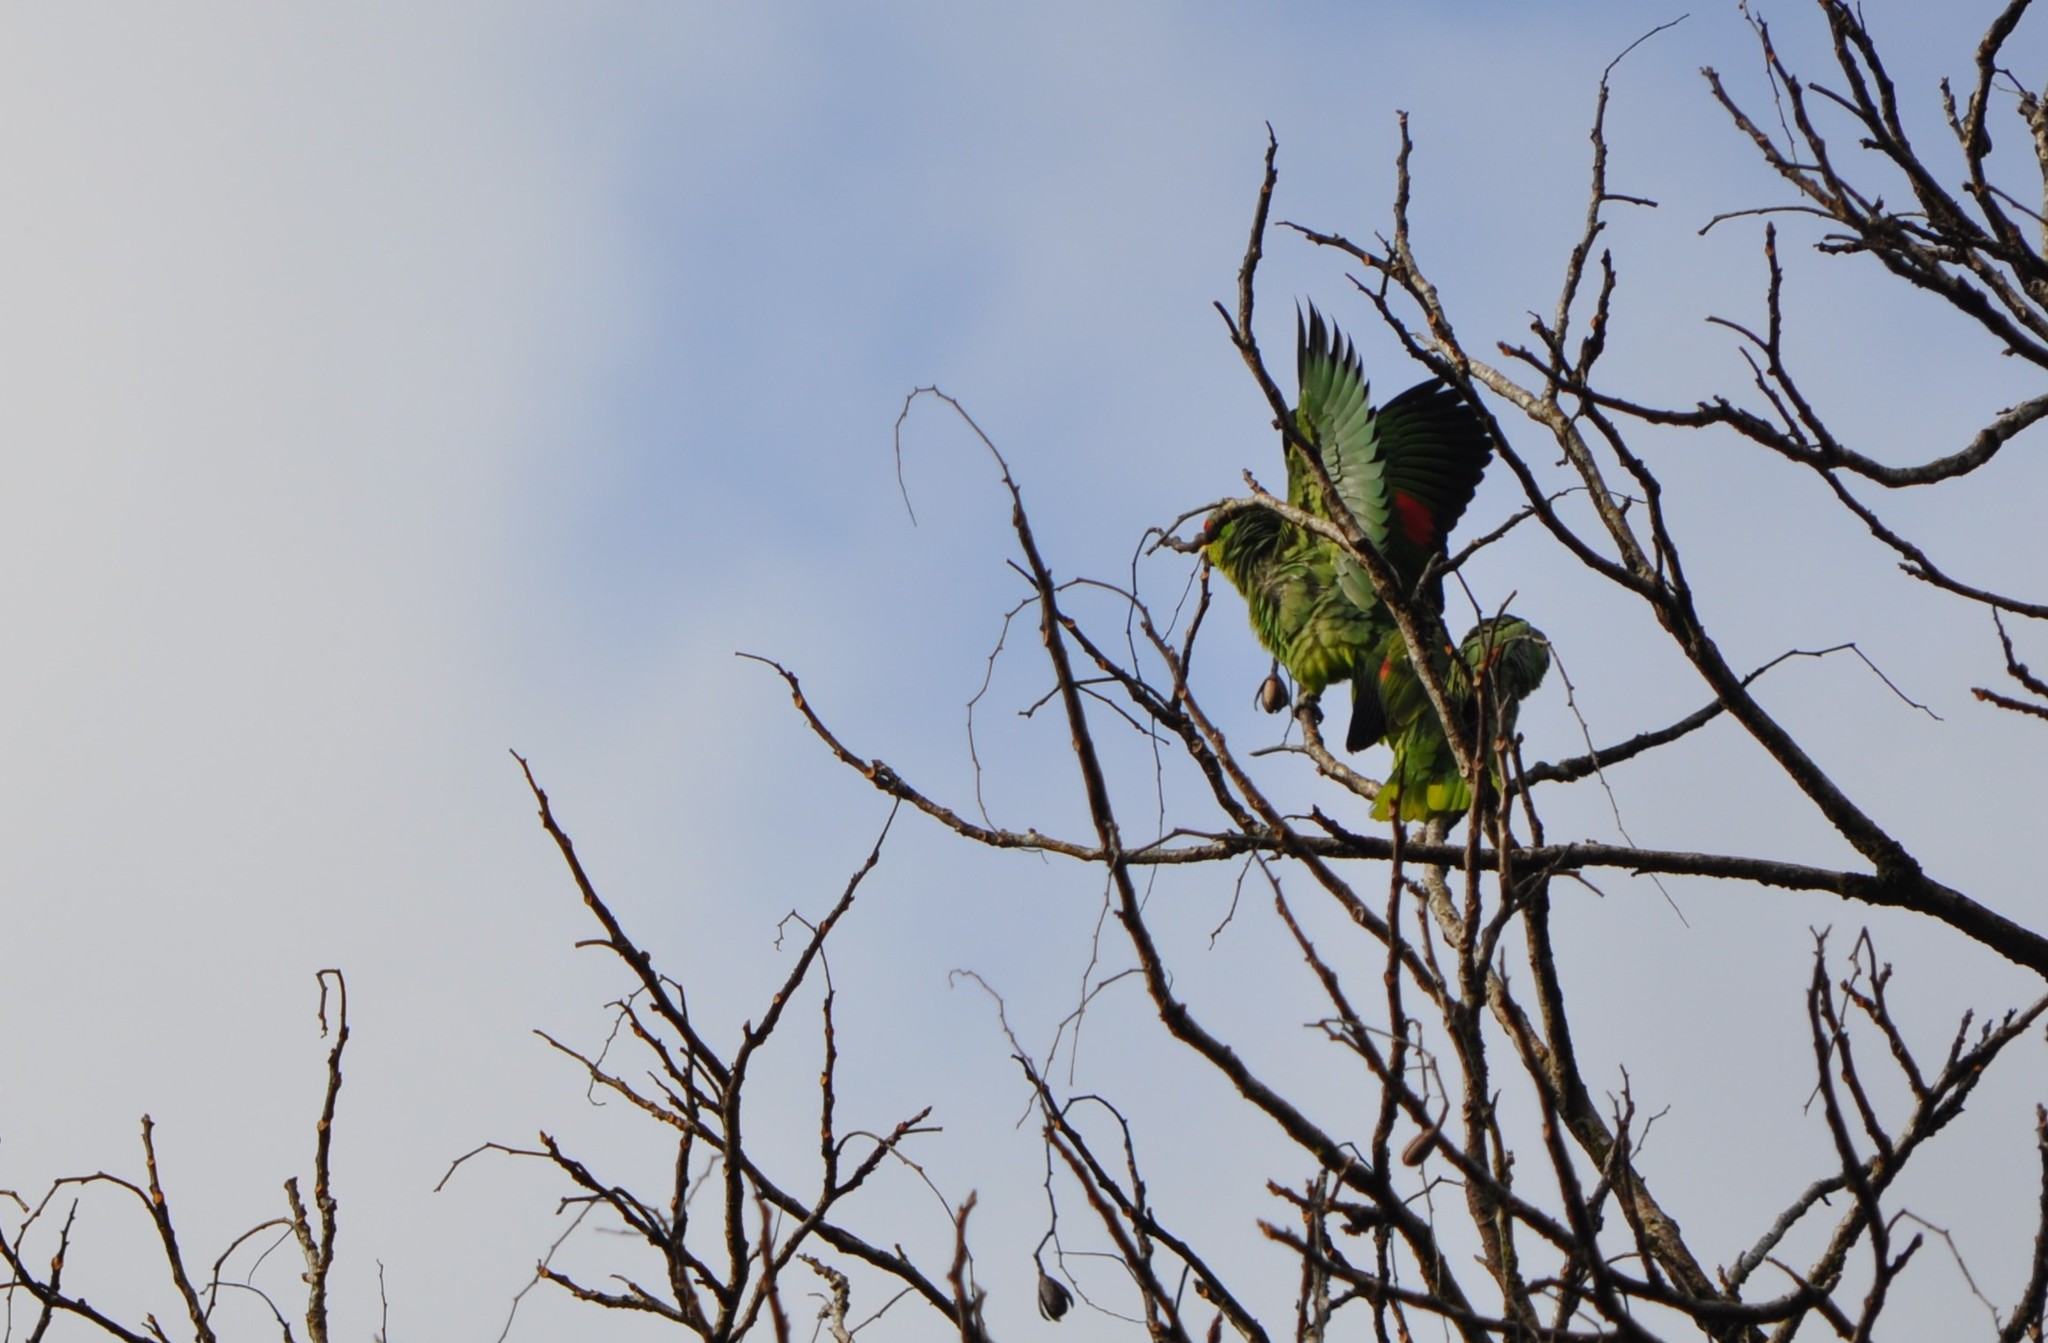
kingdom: Animalia
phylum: Chordata
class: Aves
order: Psittaciformes
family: Psittacidae
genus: Amazona
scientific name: Amazona autumnalis
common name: Red-lored amazon
